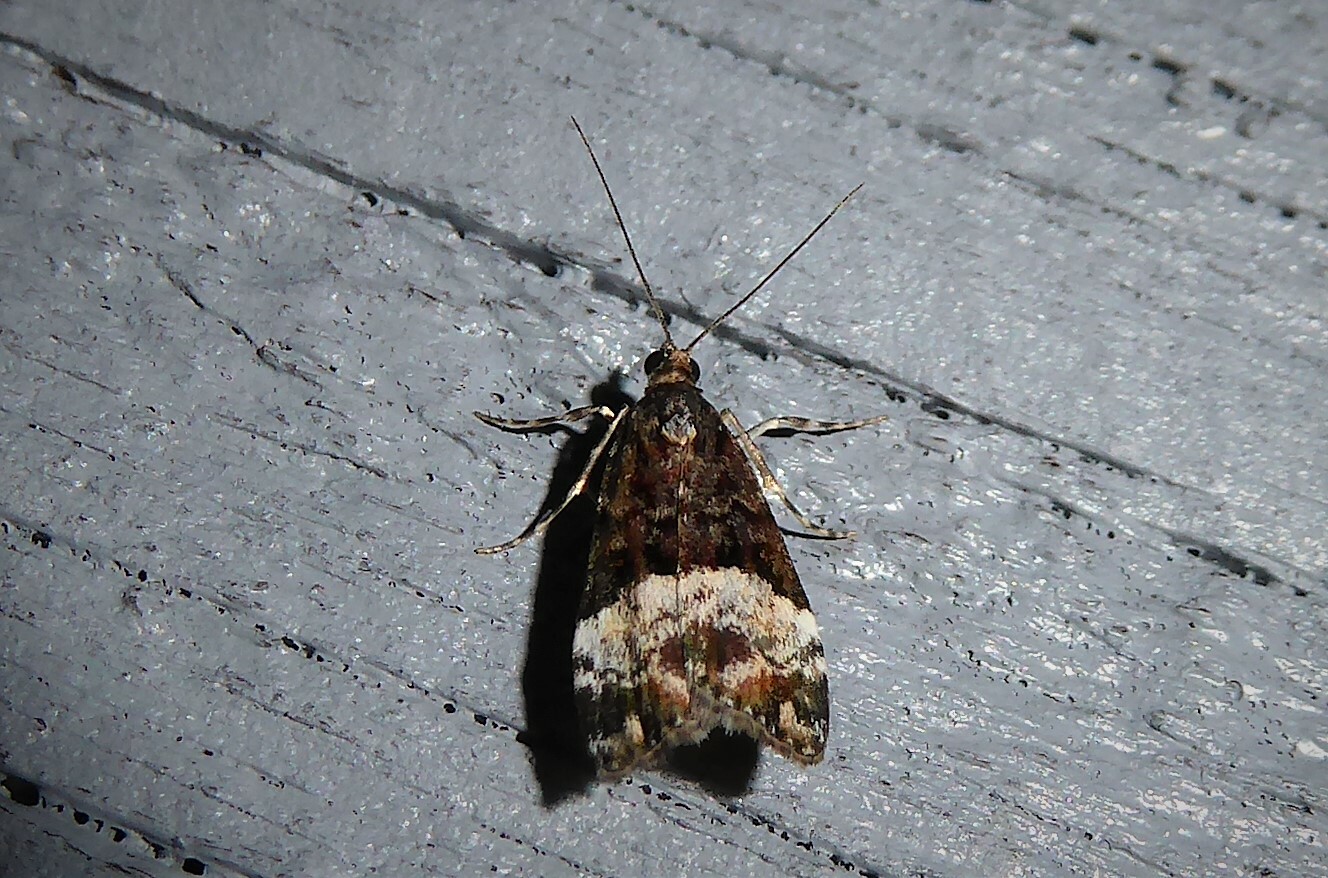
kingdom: Animalia
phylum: Arthropoda
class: Insecta
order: Lepidoptera
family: Crambidae
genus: Scoparia
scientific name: Scoparia minusculalis
